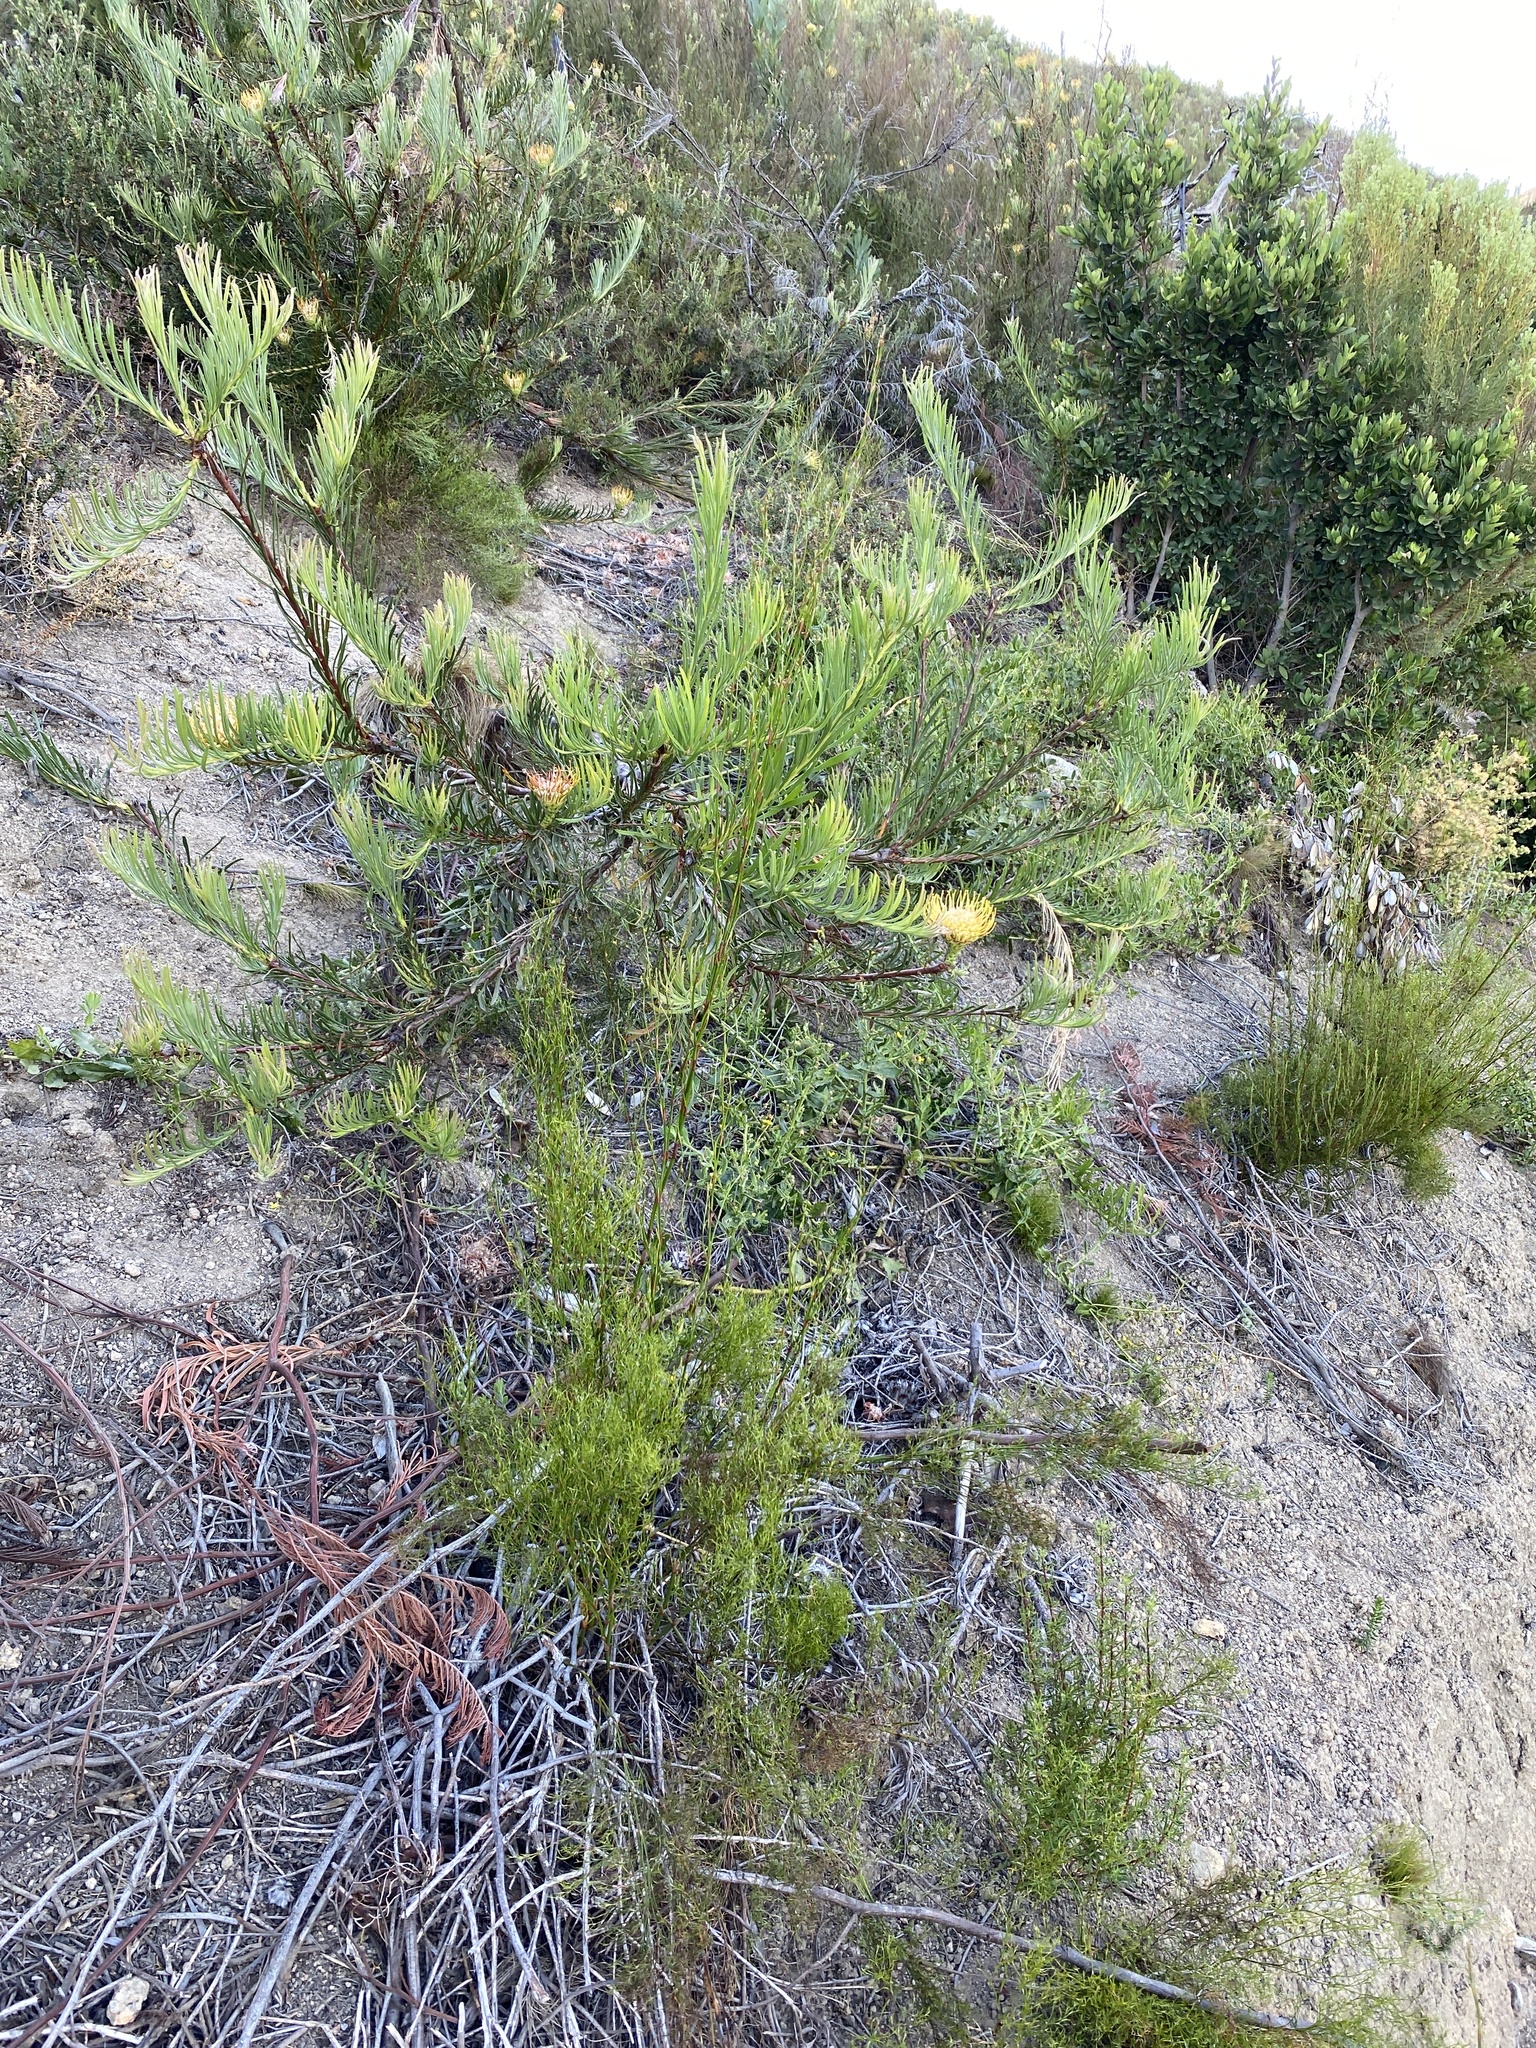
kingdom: Plantae
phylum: Tracheophyta
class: Magnoliopsida
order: Proteales
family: Proteaceae
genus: Leucospermum
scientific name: Leucospermum lineare
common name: Needle-leaf pincushion
